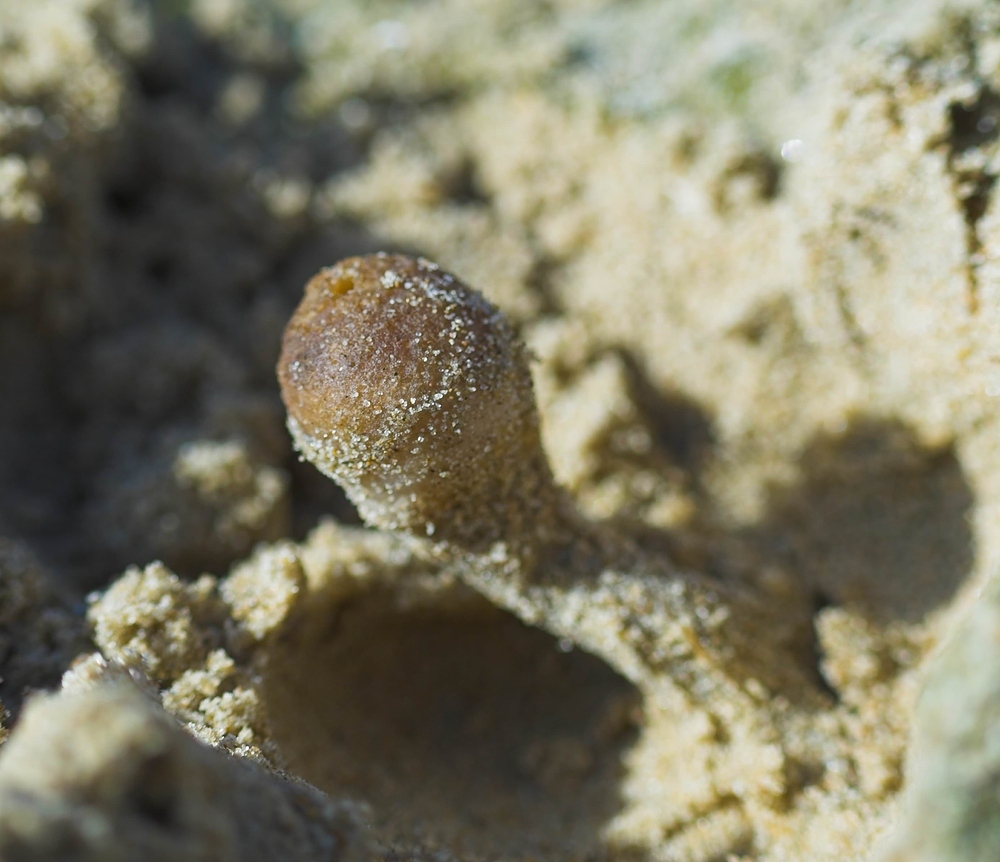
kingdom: Fungi
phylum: Ascomycota
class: Pezizomycetes
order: Pezizales
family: Pezizaceae
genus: Peziza
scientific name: Peziza ammophila
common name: Dune cup
